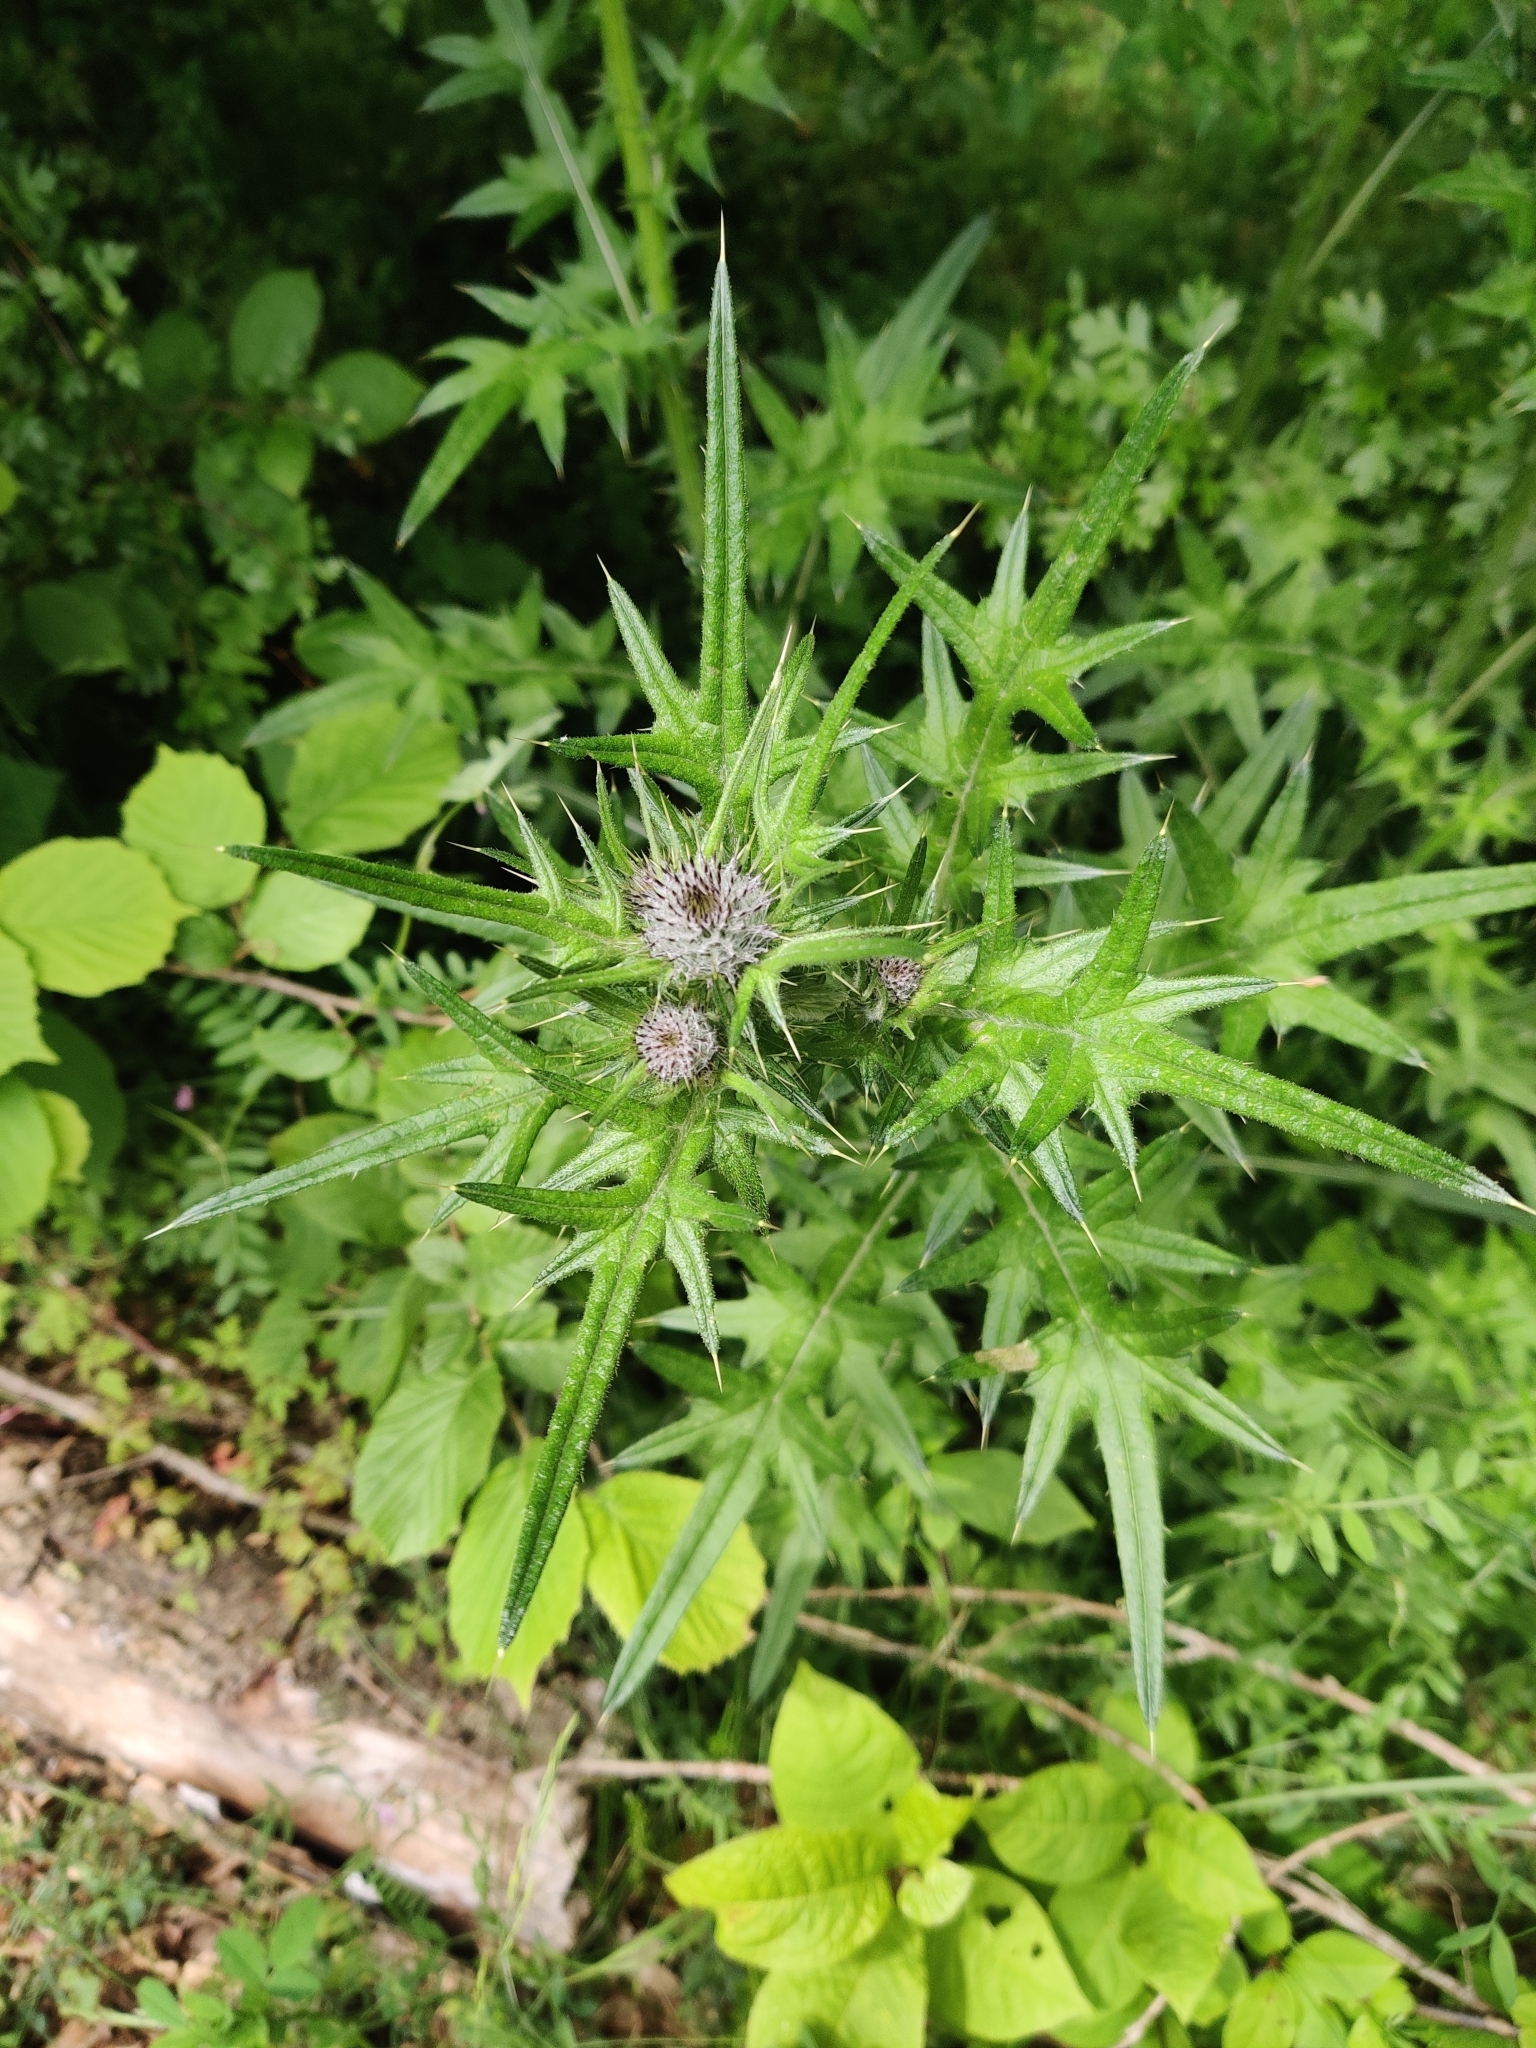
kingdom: Plantae
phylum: Tracheophyta
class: Magnoliopsida
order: Asterales
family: Asteraceae
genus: Cirsium
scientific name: Cirsium vulgare
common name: Bull thistle
